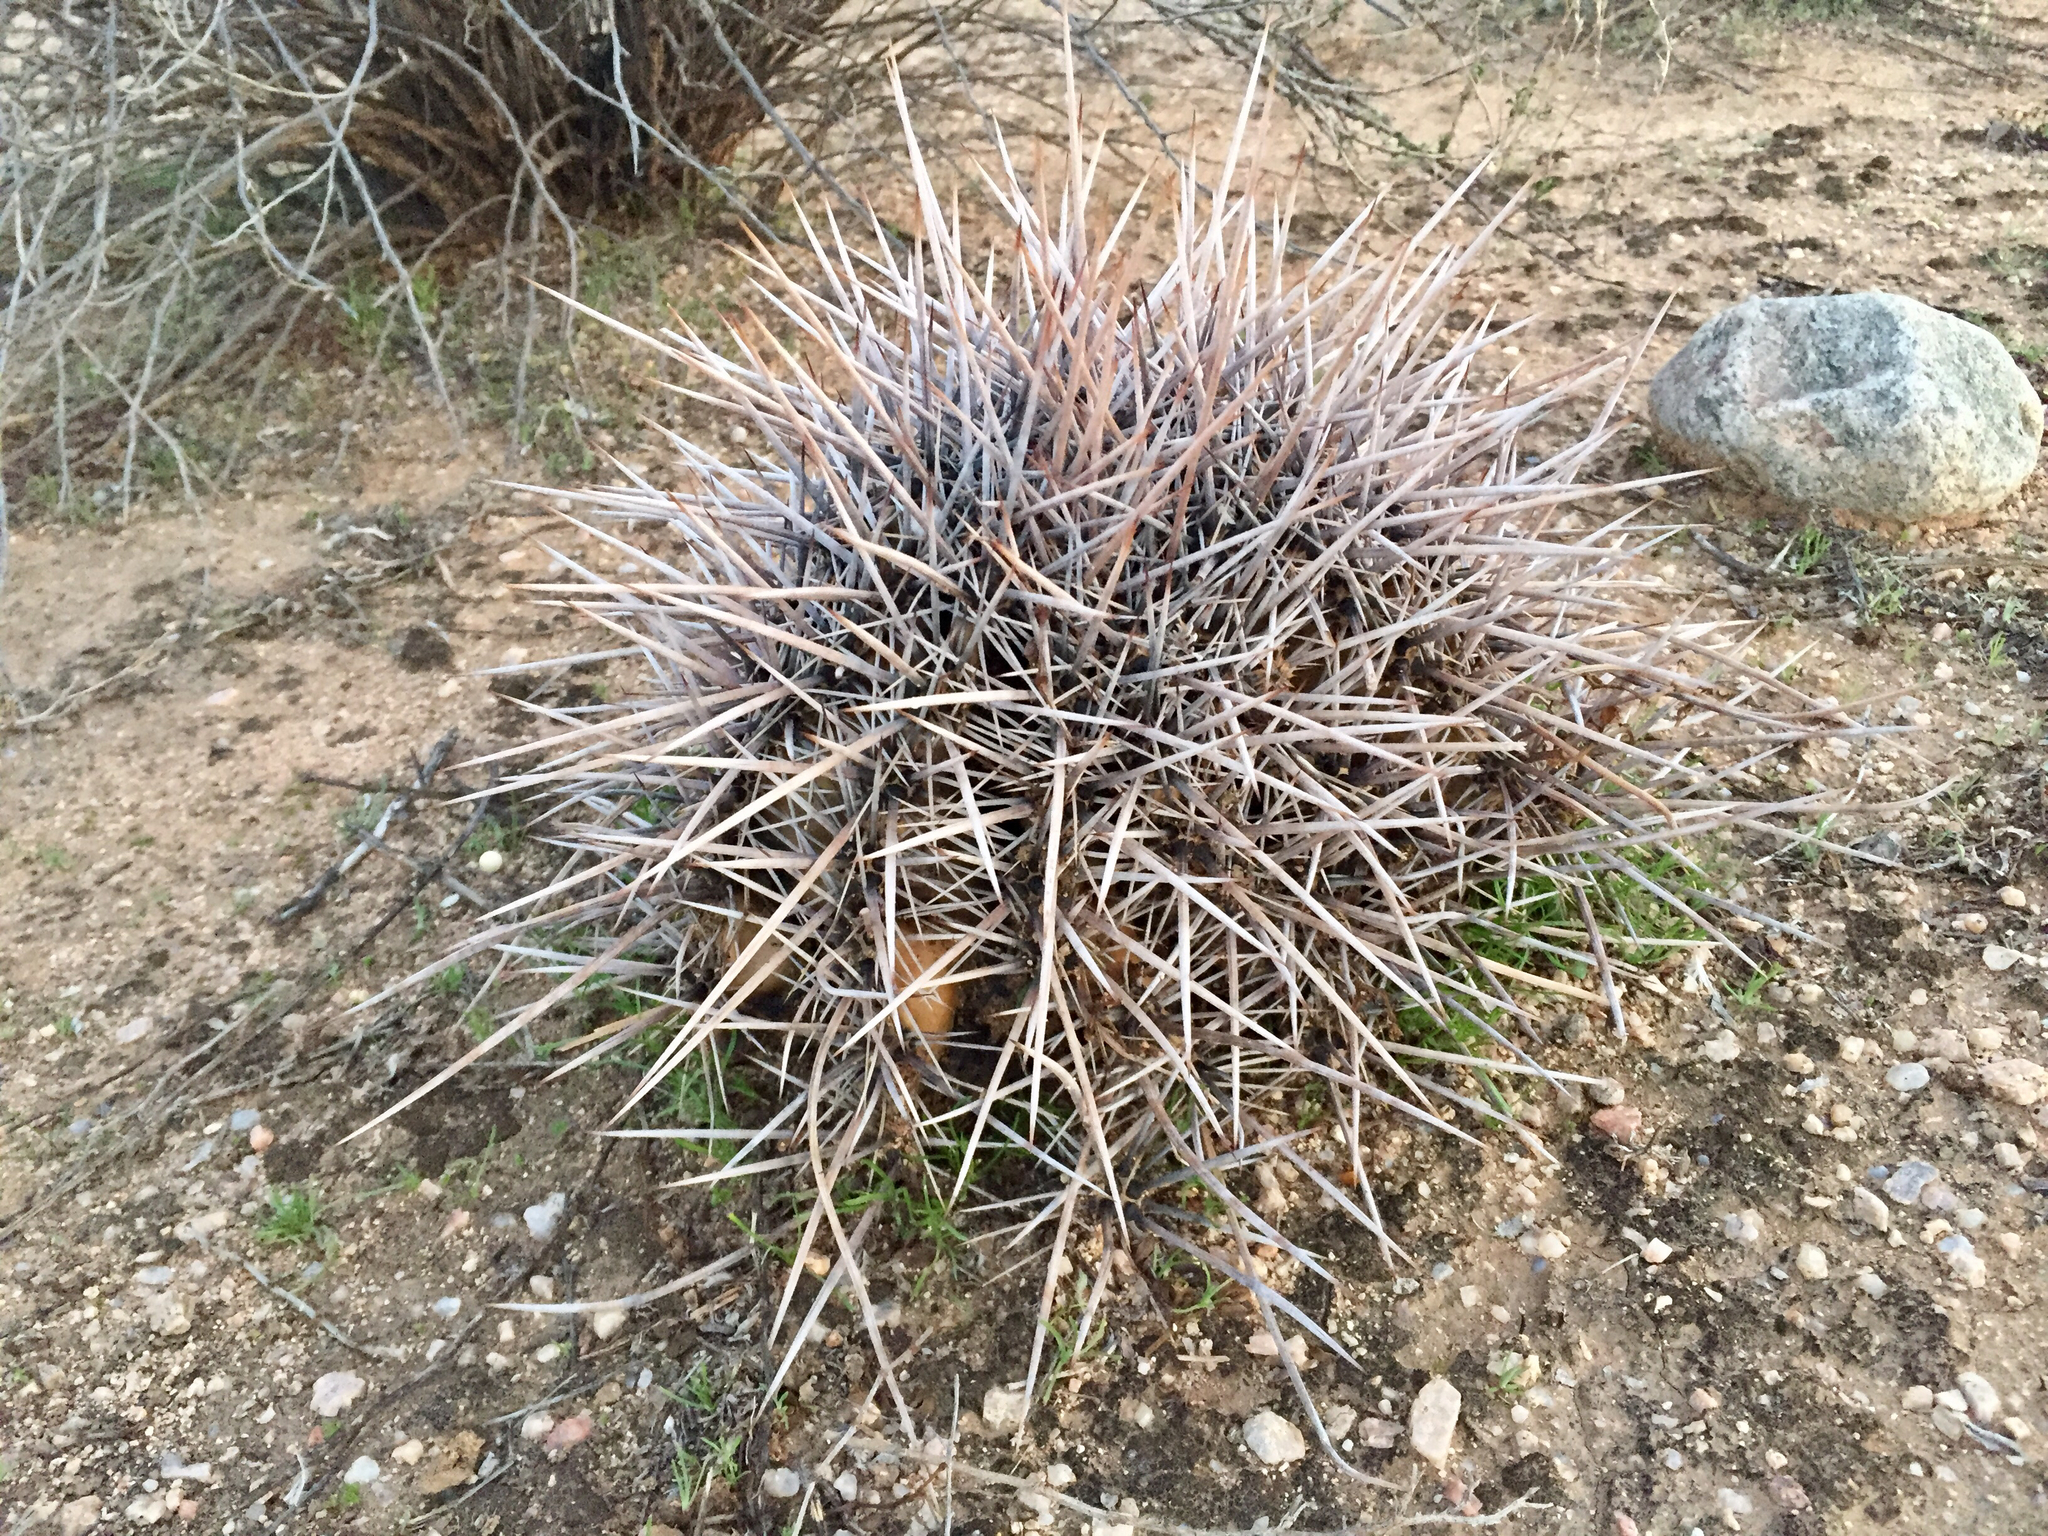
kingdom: Plantae
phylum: Tracheophyta
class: Magnoliopsida
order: Caryophyllales
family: Cactaceae
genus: Carnegiea
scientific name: Carnegiea gigantea
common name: Saguaro
